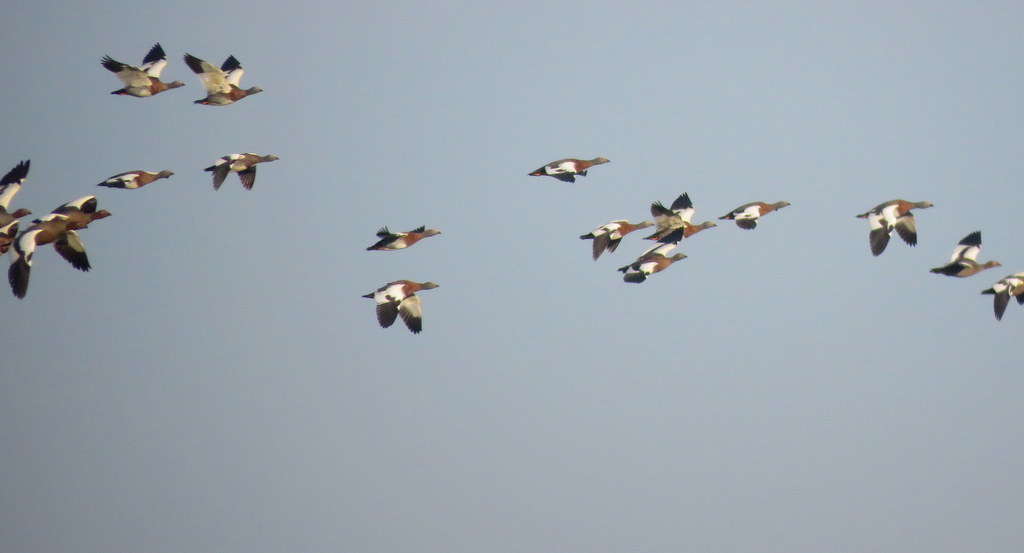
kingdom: Animalia
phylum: Chordata
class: Aves
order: Anseriformes
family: Anatidae
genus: Chloephaga
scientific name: Chloephaga poliocephala
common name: Ashy-headed goose
